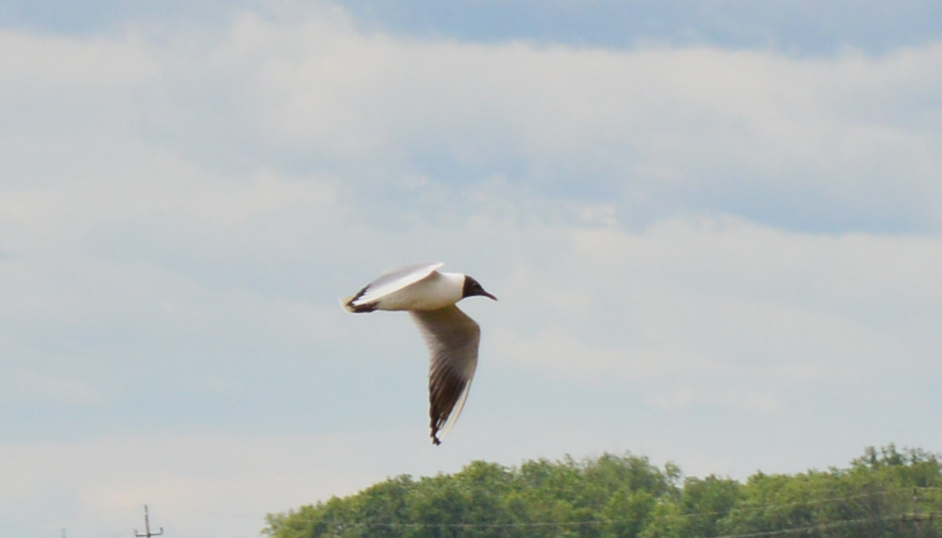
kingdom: Animalia
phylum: Chordata
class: Aves
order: Charadriiformes
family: Laridae
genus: Chroicocephalus
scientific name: Chroicocephalus ridibundus
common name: Black-headed gull
